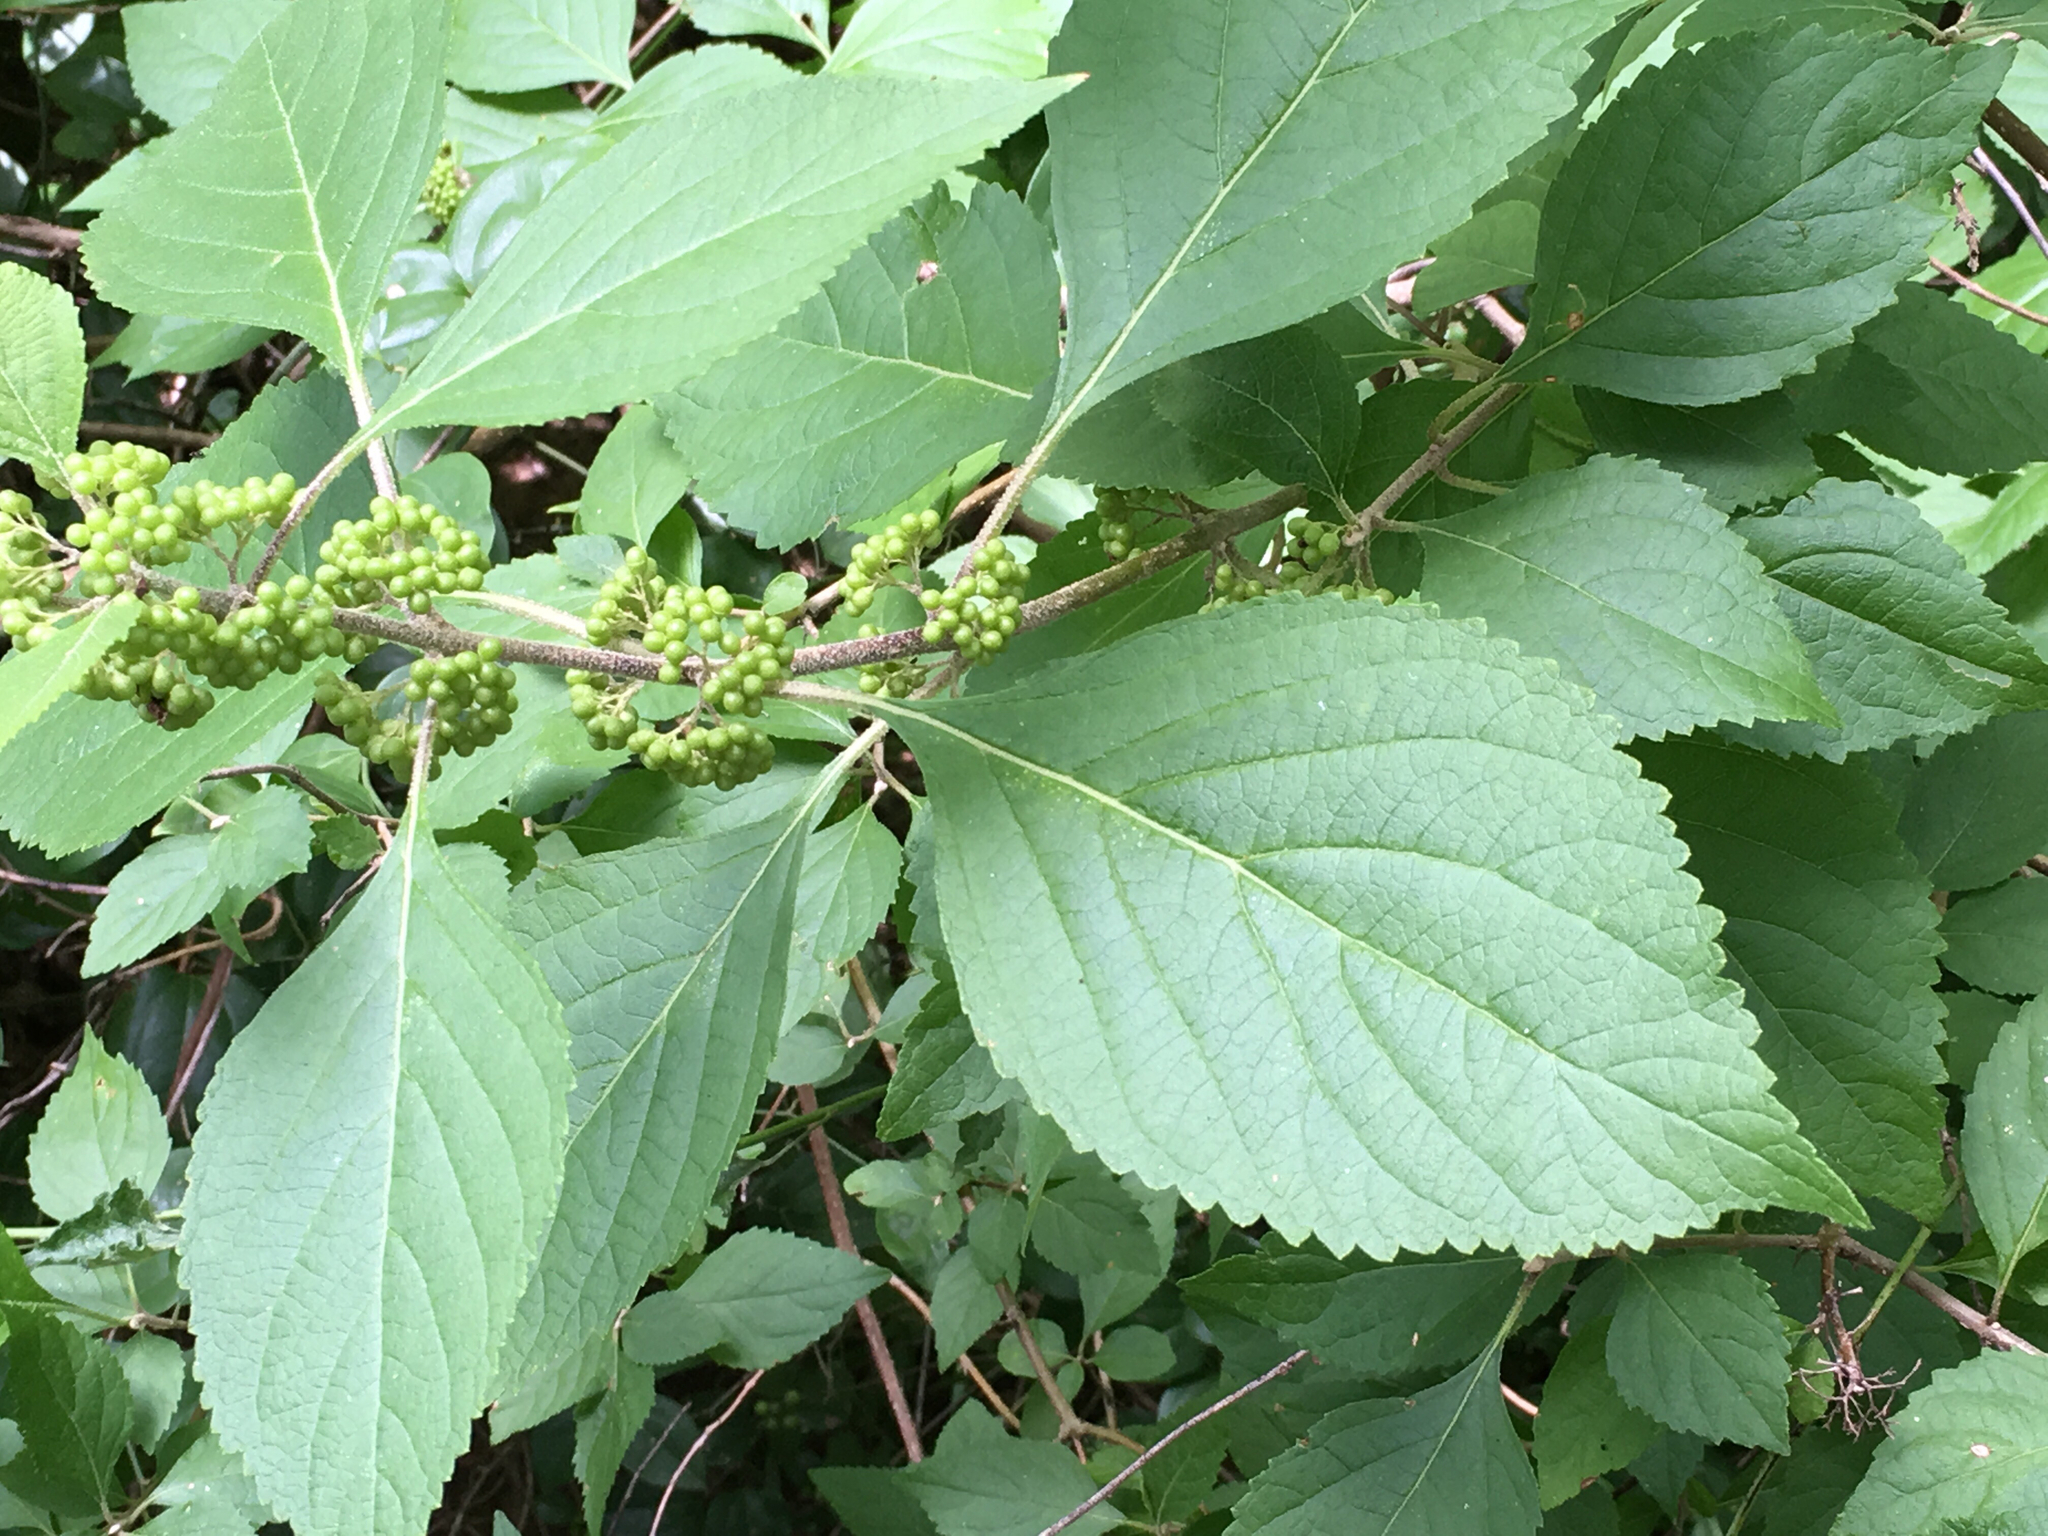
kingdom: Plantae
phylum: Tracheophyta
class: Magnoliopsida
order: Lamiales
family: Lamiaceae
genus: Callicarpa
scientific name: Callicarpa americana
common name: American beautyberry
